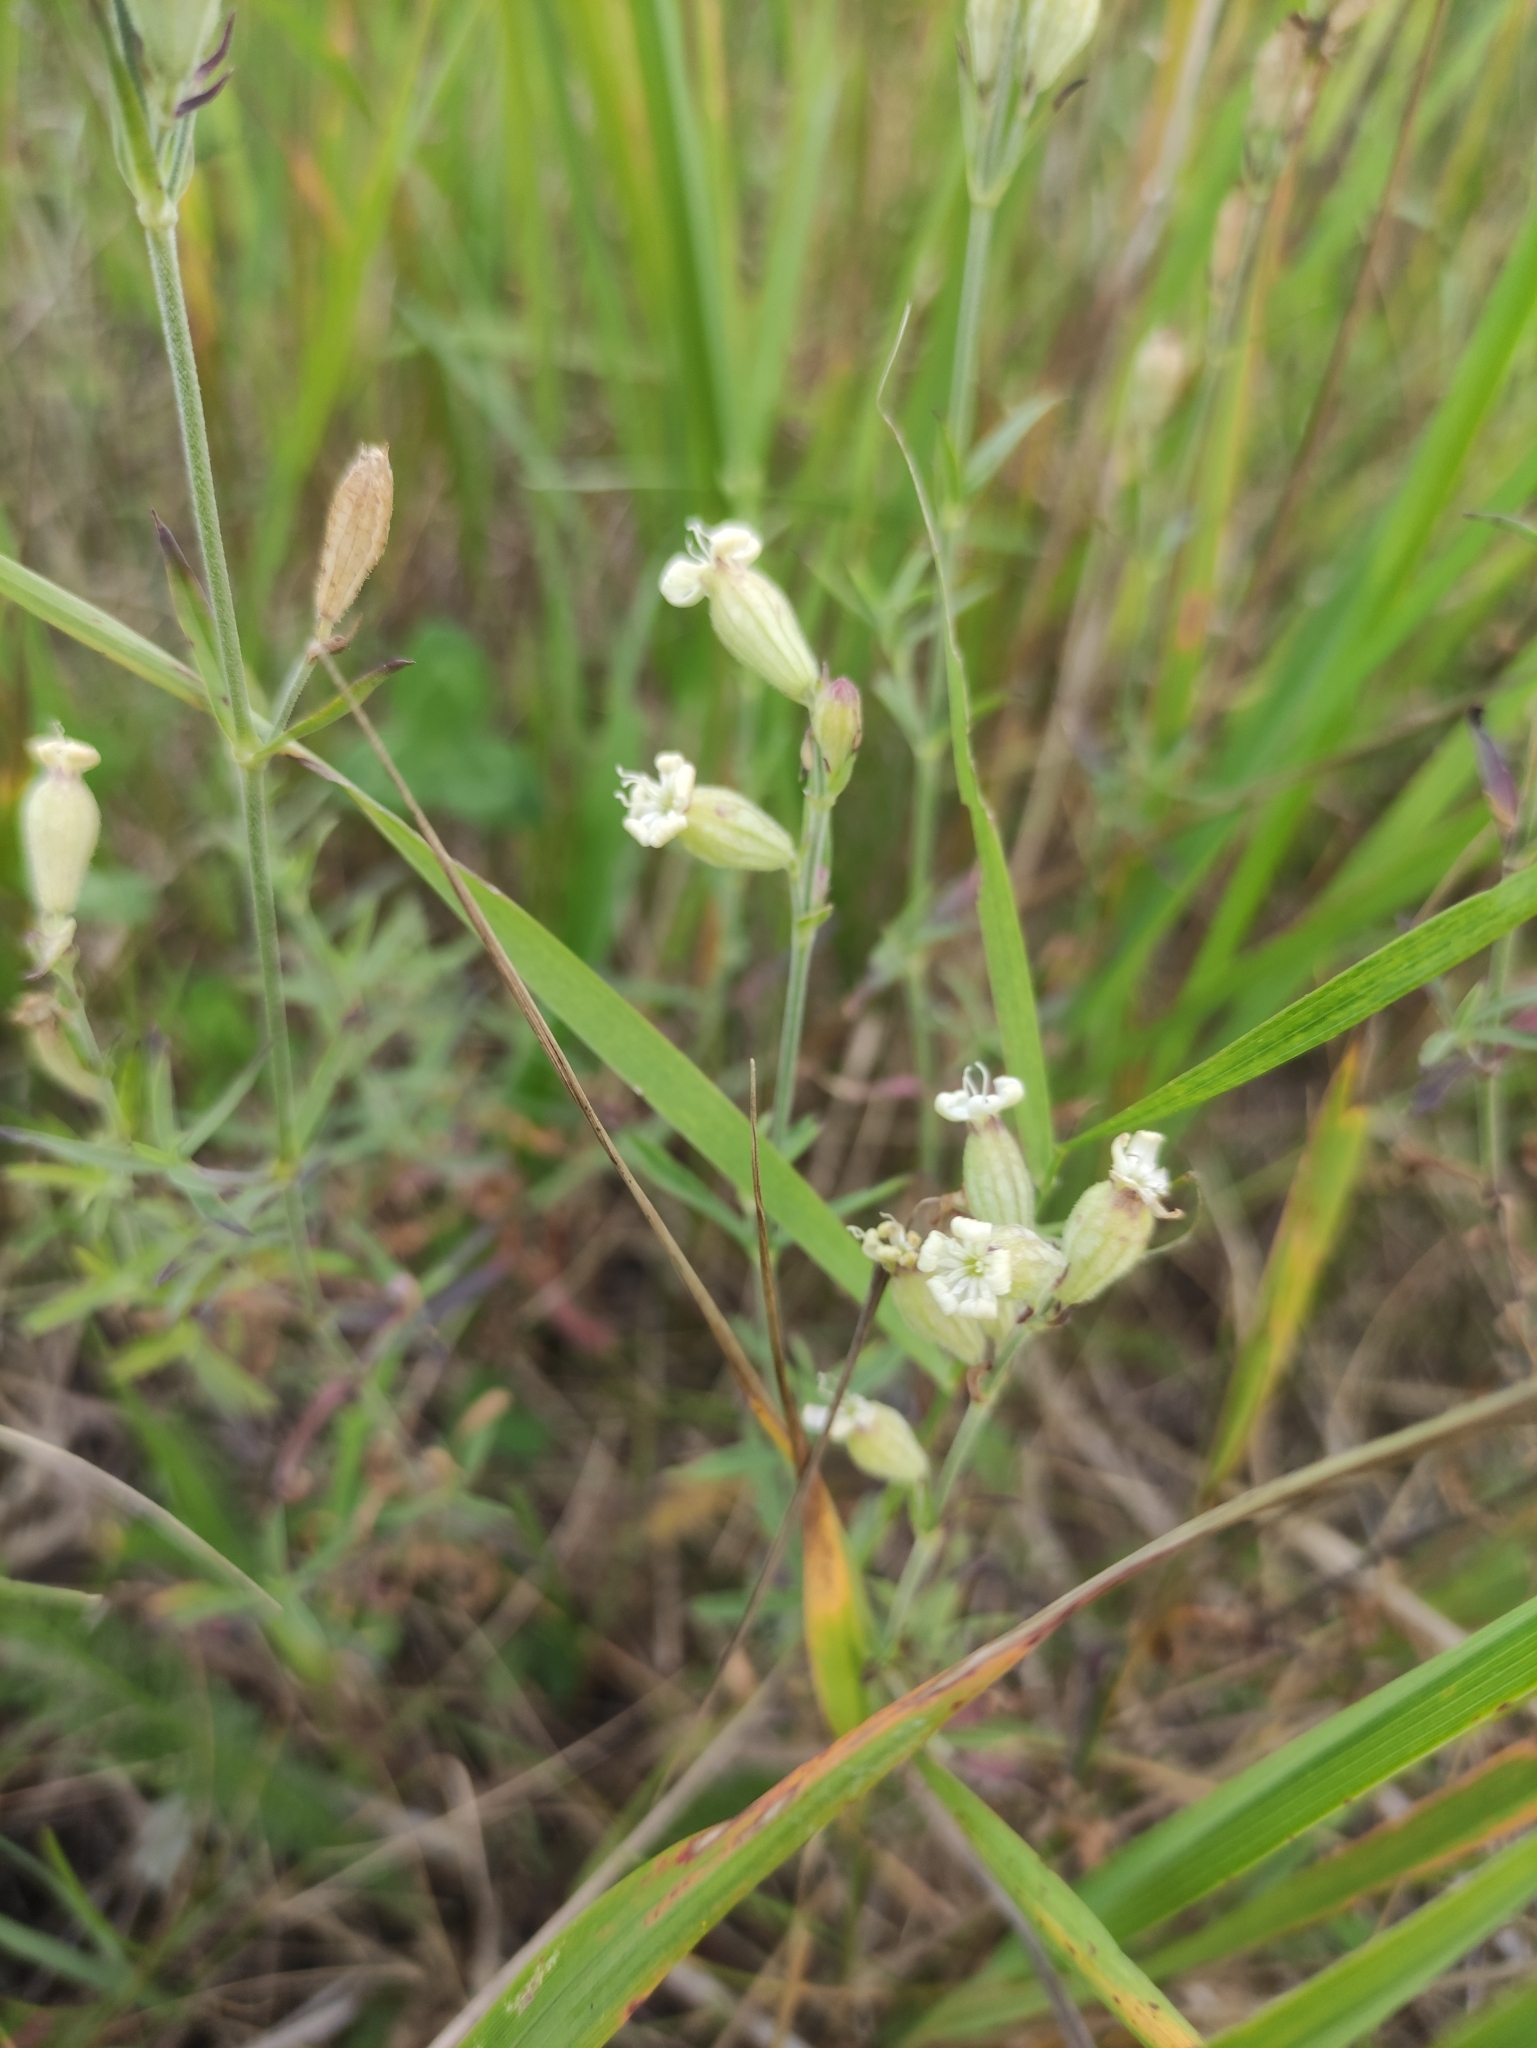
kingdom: Plantae
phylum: Tracheophyta
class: Magnoliopsida
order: Caryophyllales
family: Caryophyllaceae
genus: Silene
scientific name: Silene amoena
